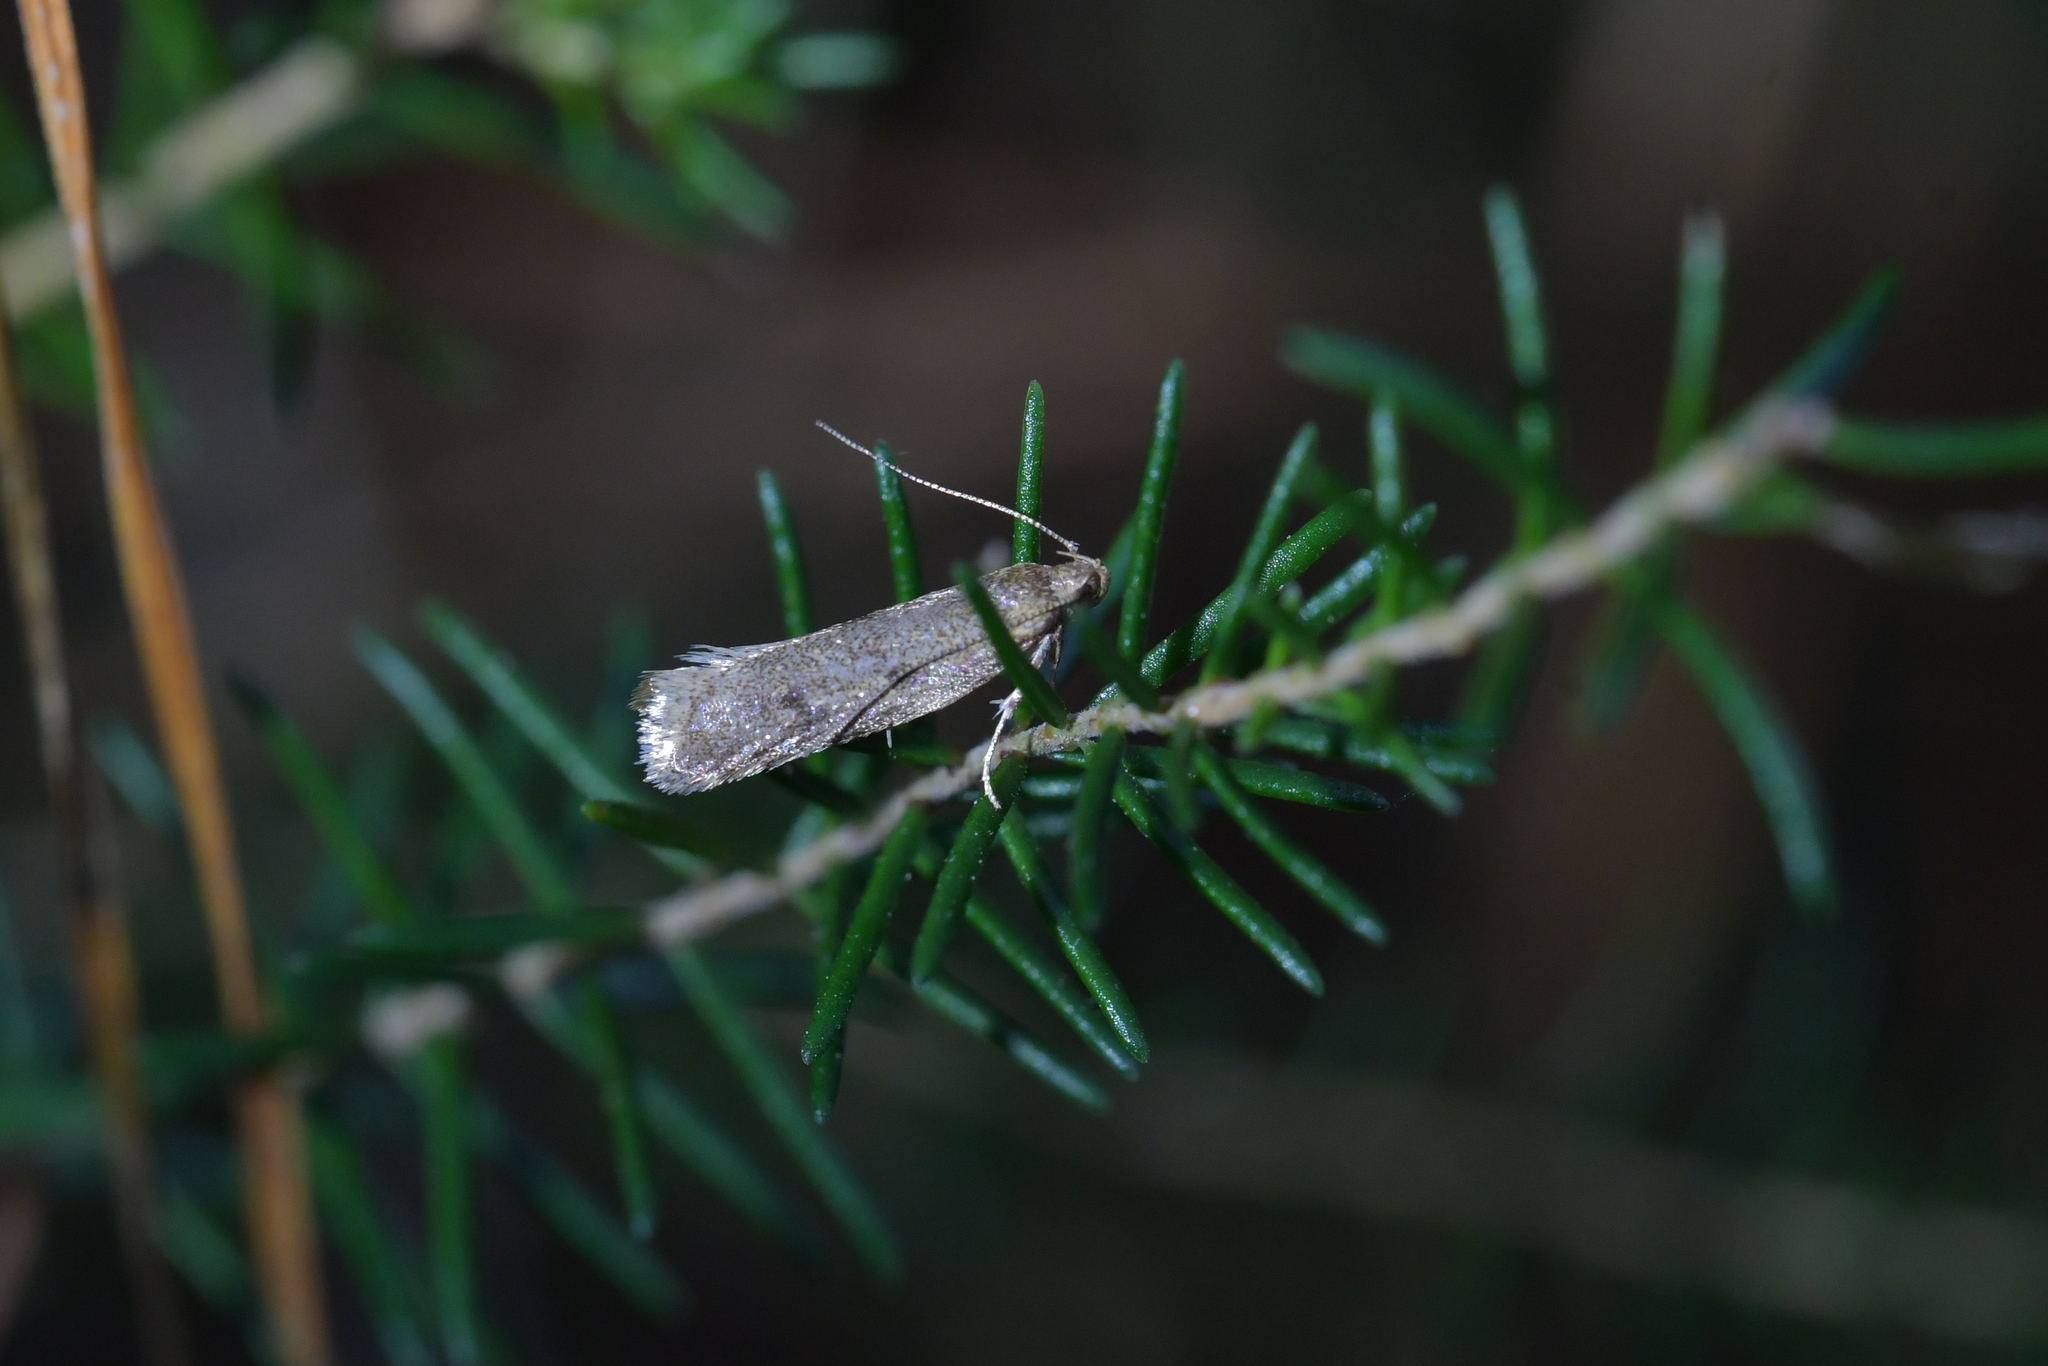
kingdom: Animalia
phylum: Arthropoda
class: Insecta
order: Lepidoptera
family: Oecophoridae
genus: Gymnobathra
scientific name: Gymnobathra tholodella
